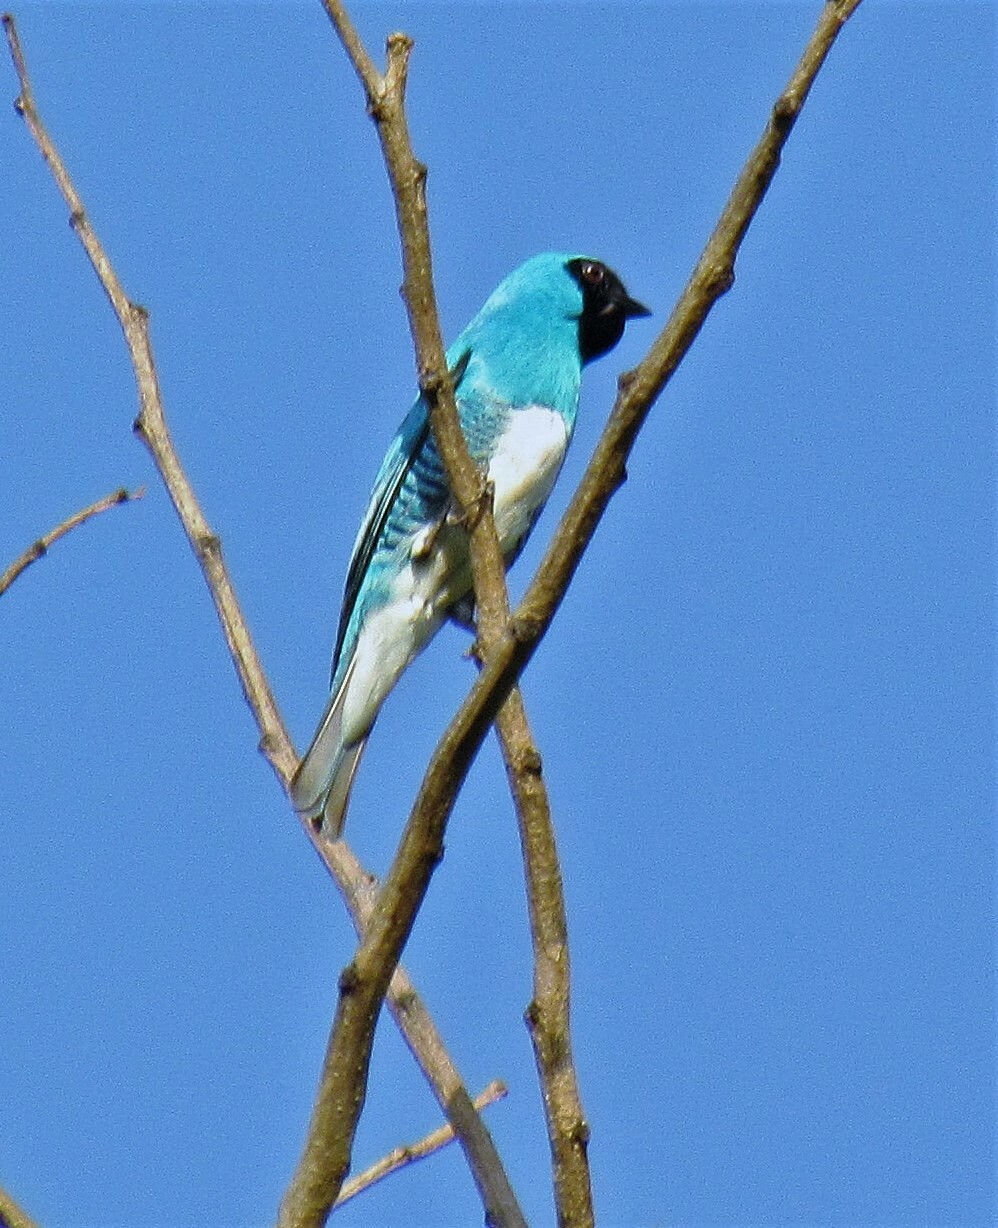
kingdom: Animalia
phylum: Chordata
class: Aves
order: Passeriformes
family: Thraupidae
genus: Tersina
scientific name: Tersina viridis
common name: Swallow tanager
